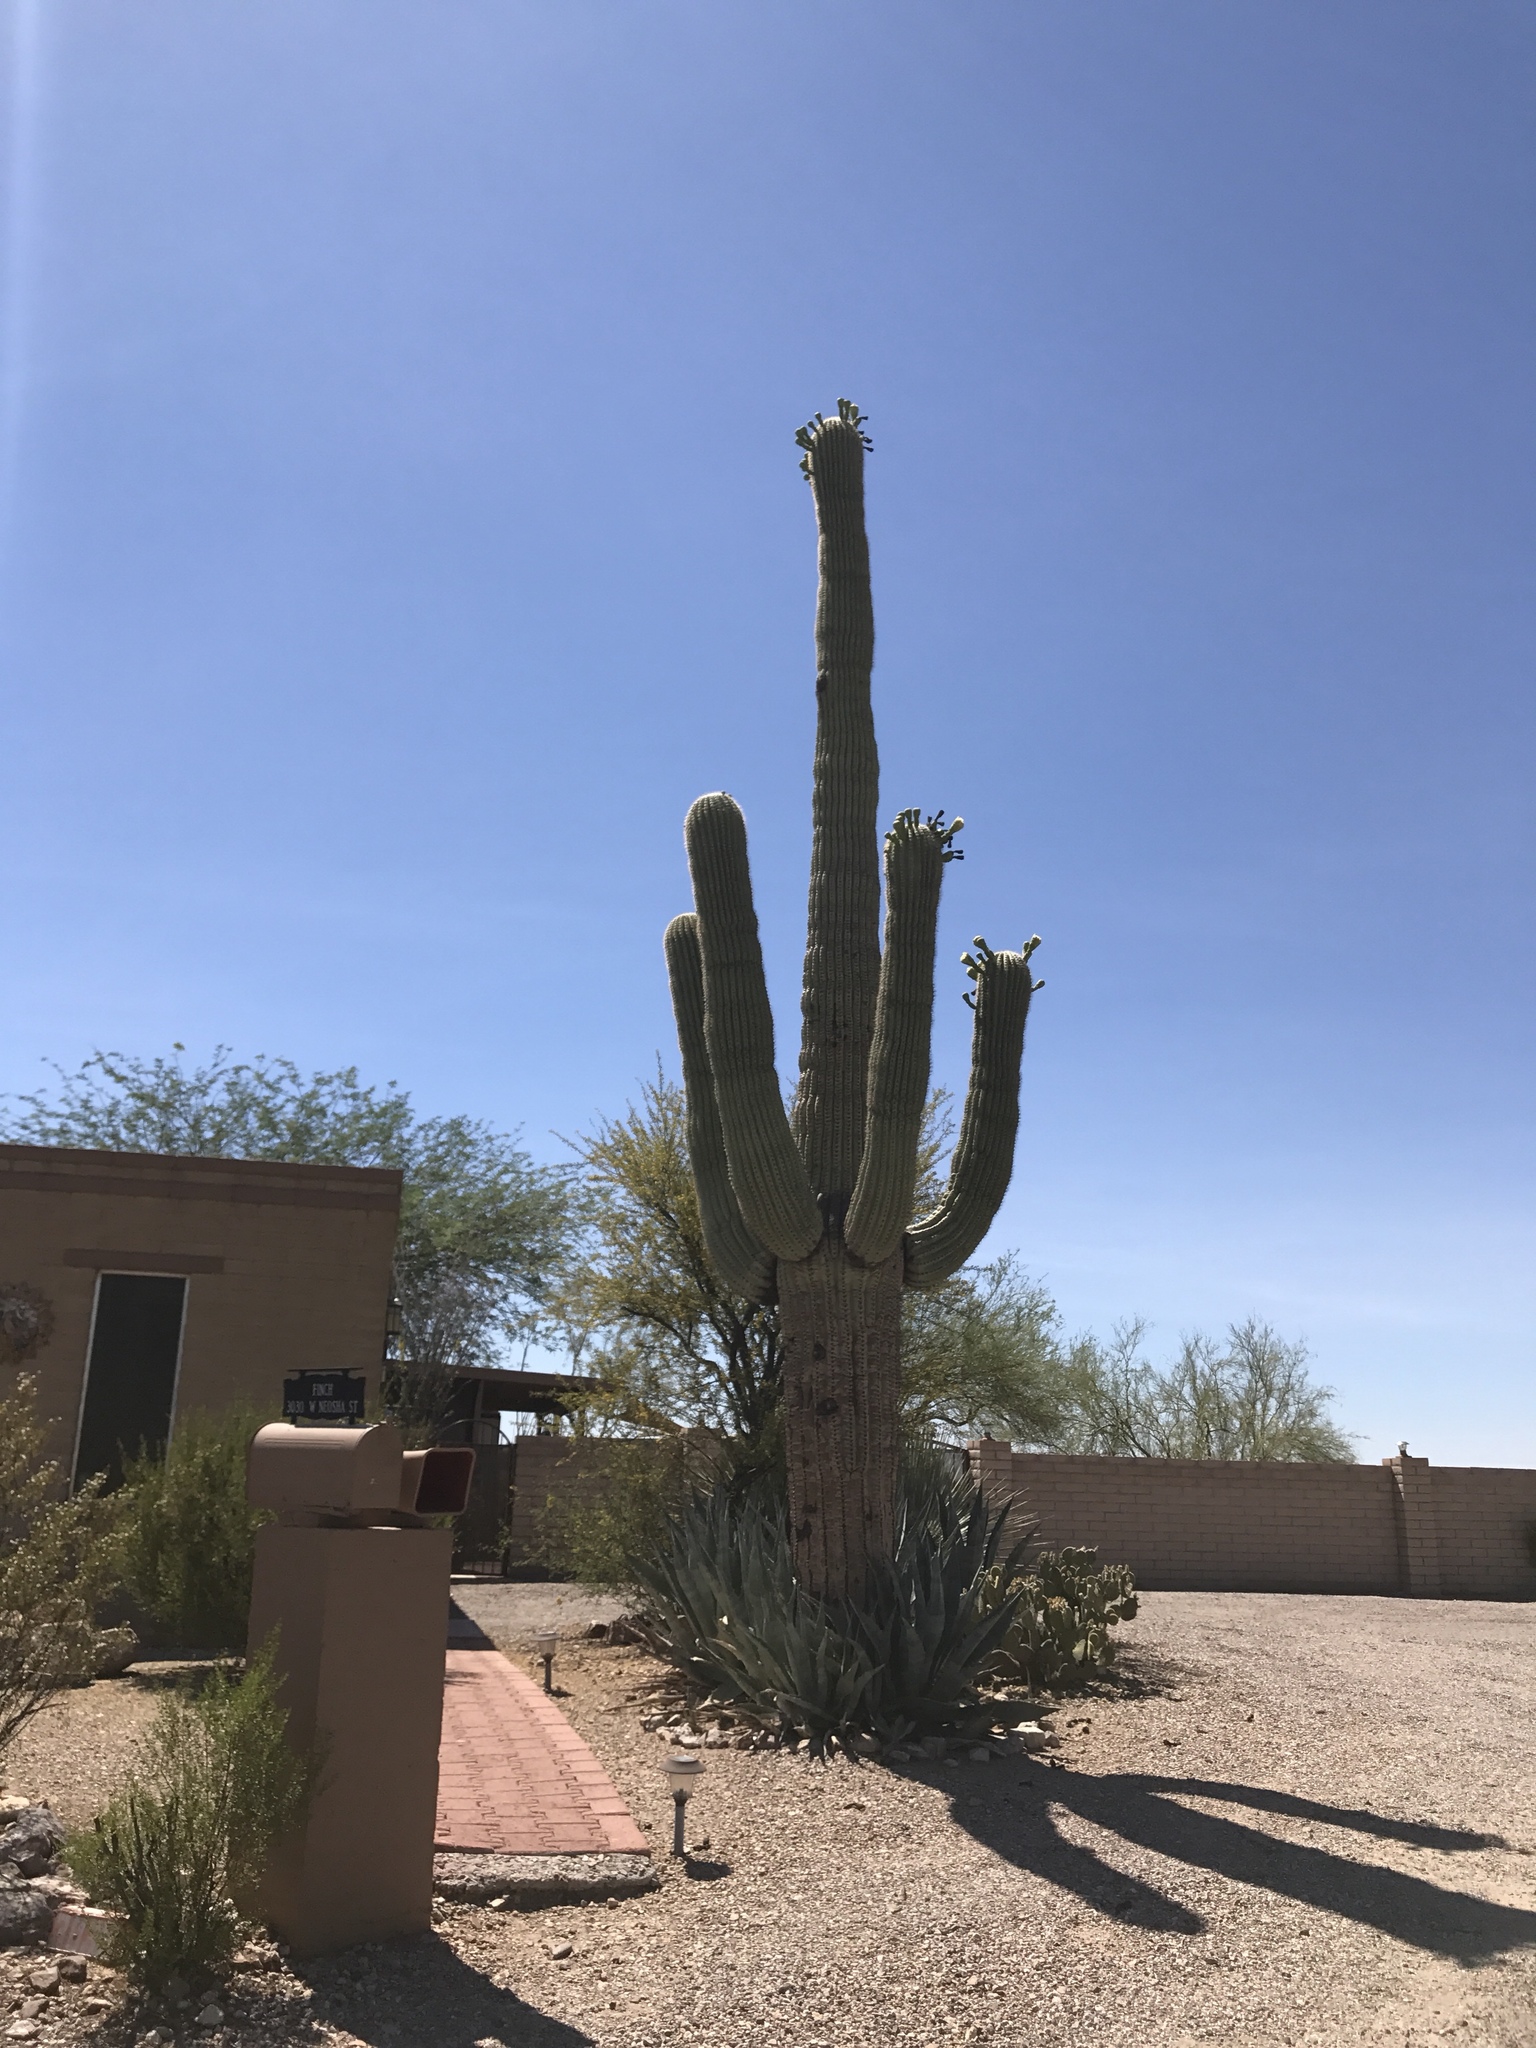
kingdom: Plantae
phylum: Tracheophyta
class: Magnoliopsida
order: Caryophyllales
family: Cactaceae
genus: Carnegiea
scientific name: Carnegiea gigantea
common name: Saguaro
